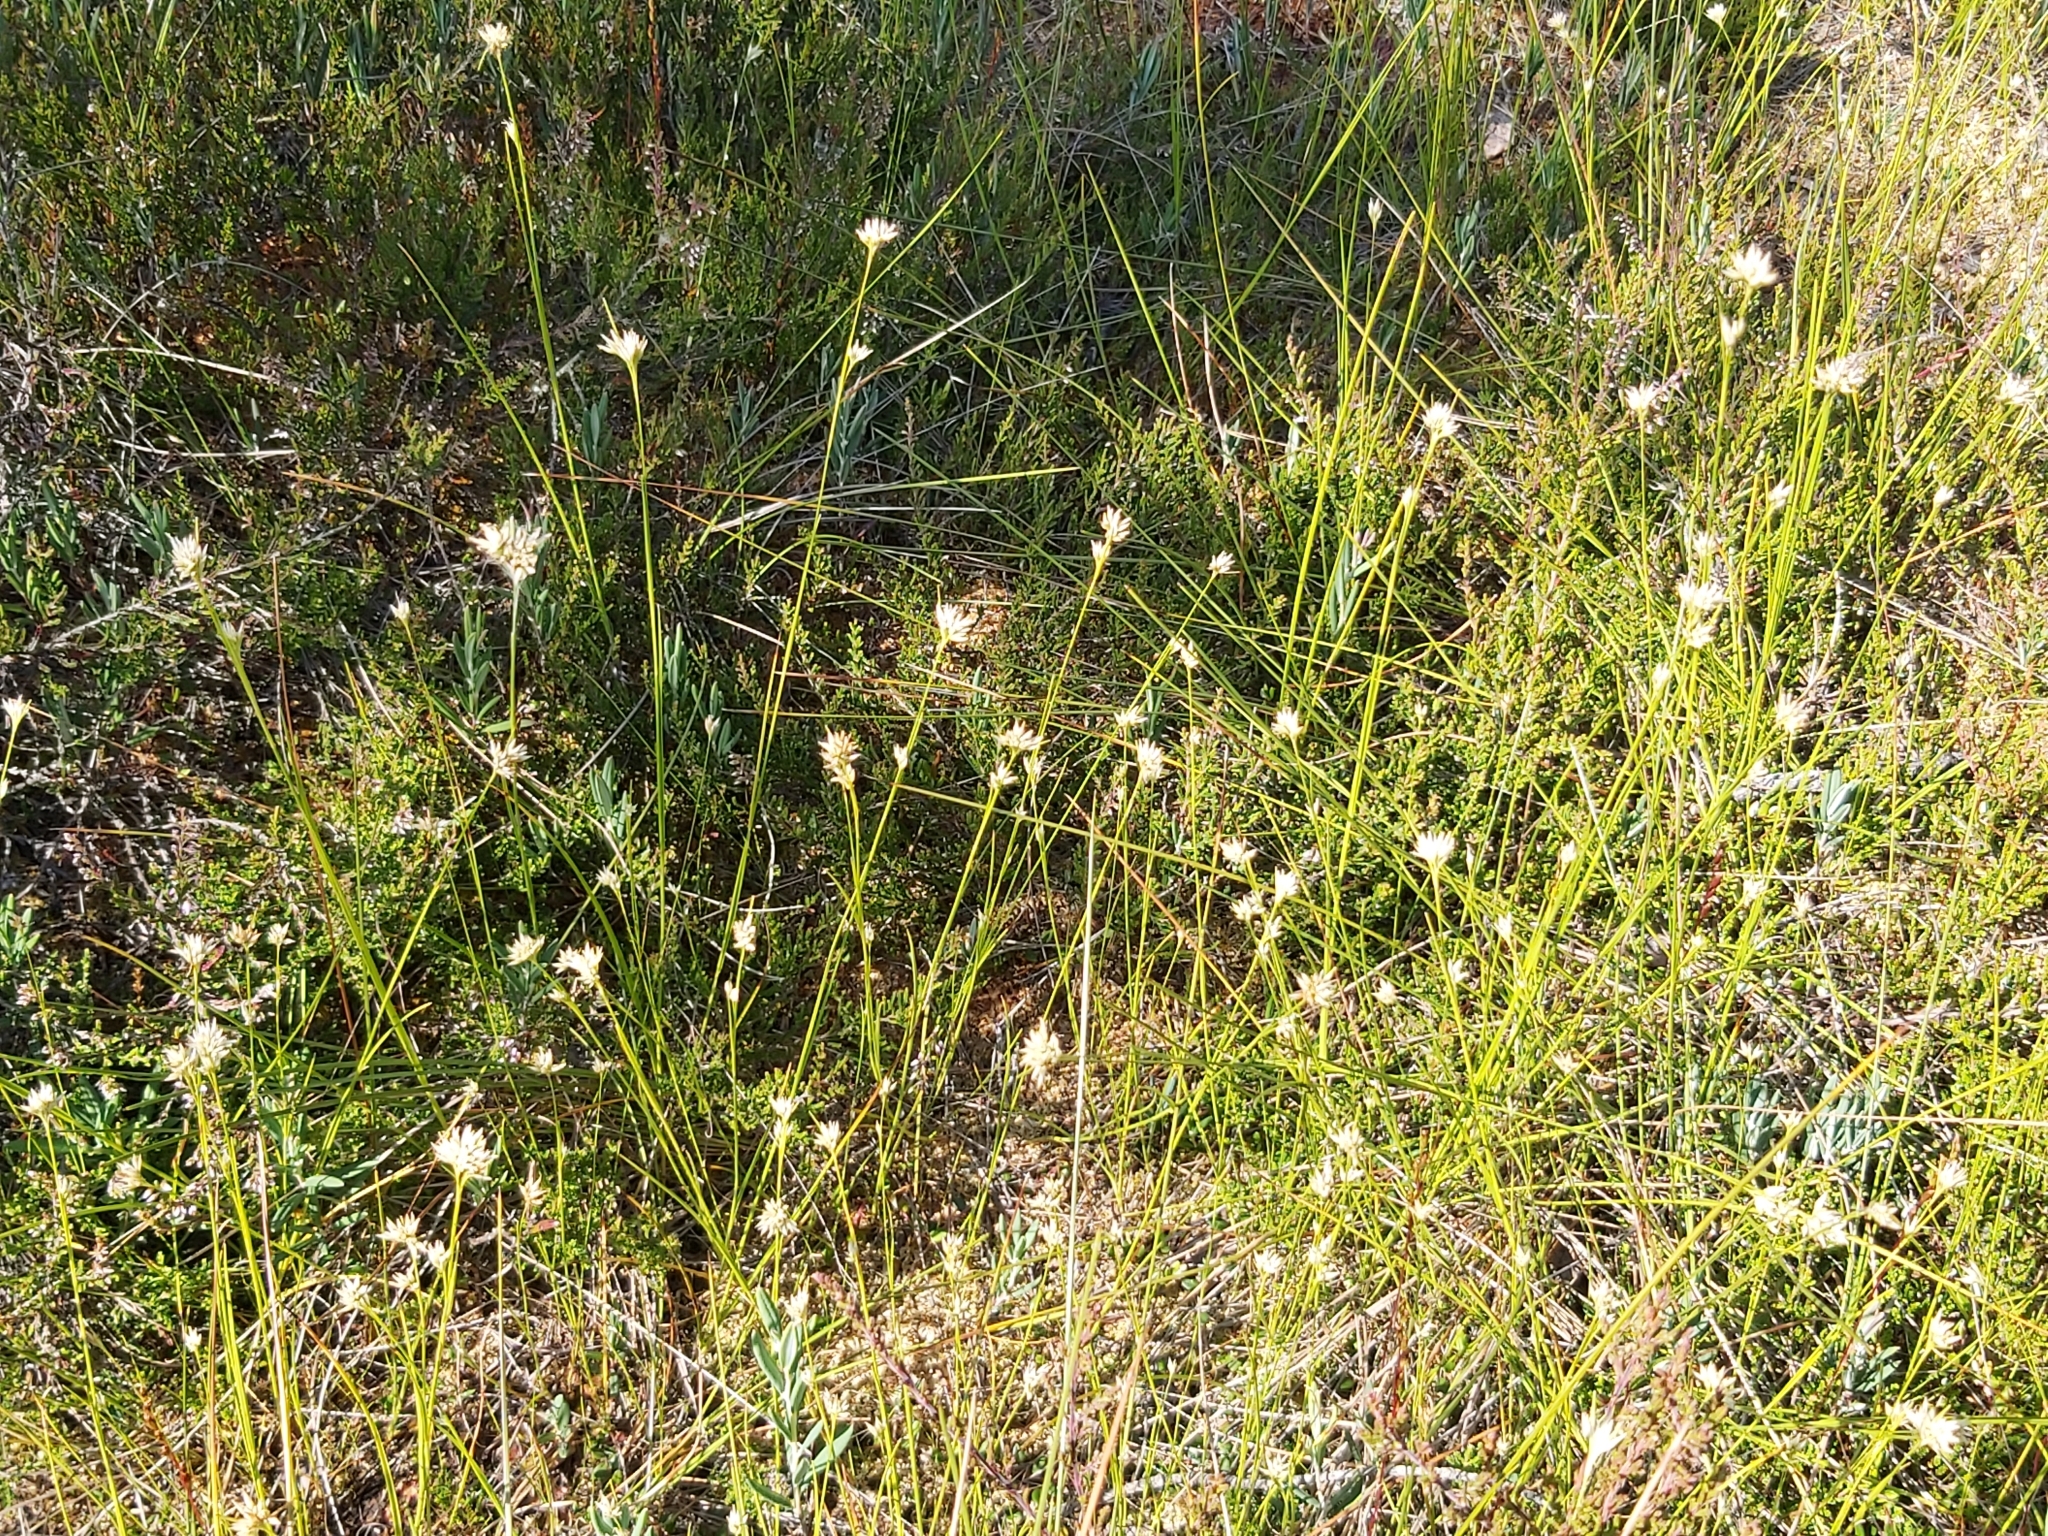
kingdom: Plantae
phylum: Tracheophyta
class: Liliopsida
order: Poales
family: Cyperaceae
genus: Rhynchospora
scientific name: Rhynchospora alba
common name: White beak-sedge
